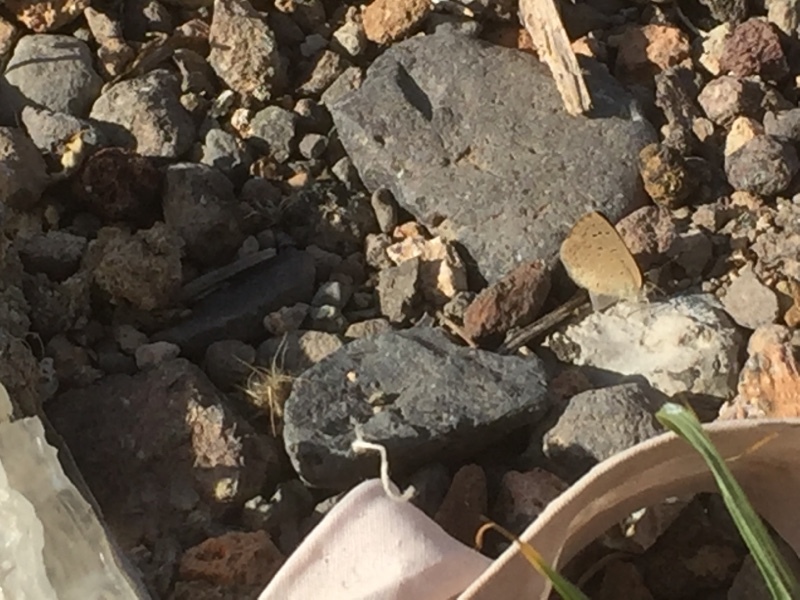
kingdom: Animalia
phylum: Arthropoda
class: Insecta
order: Lepidoptera
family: Lycaenidae
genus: Zizeeria
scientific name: Zizeeria knysna
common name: African grass blue
